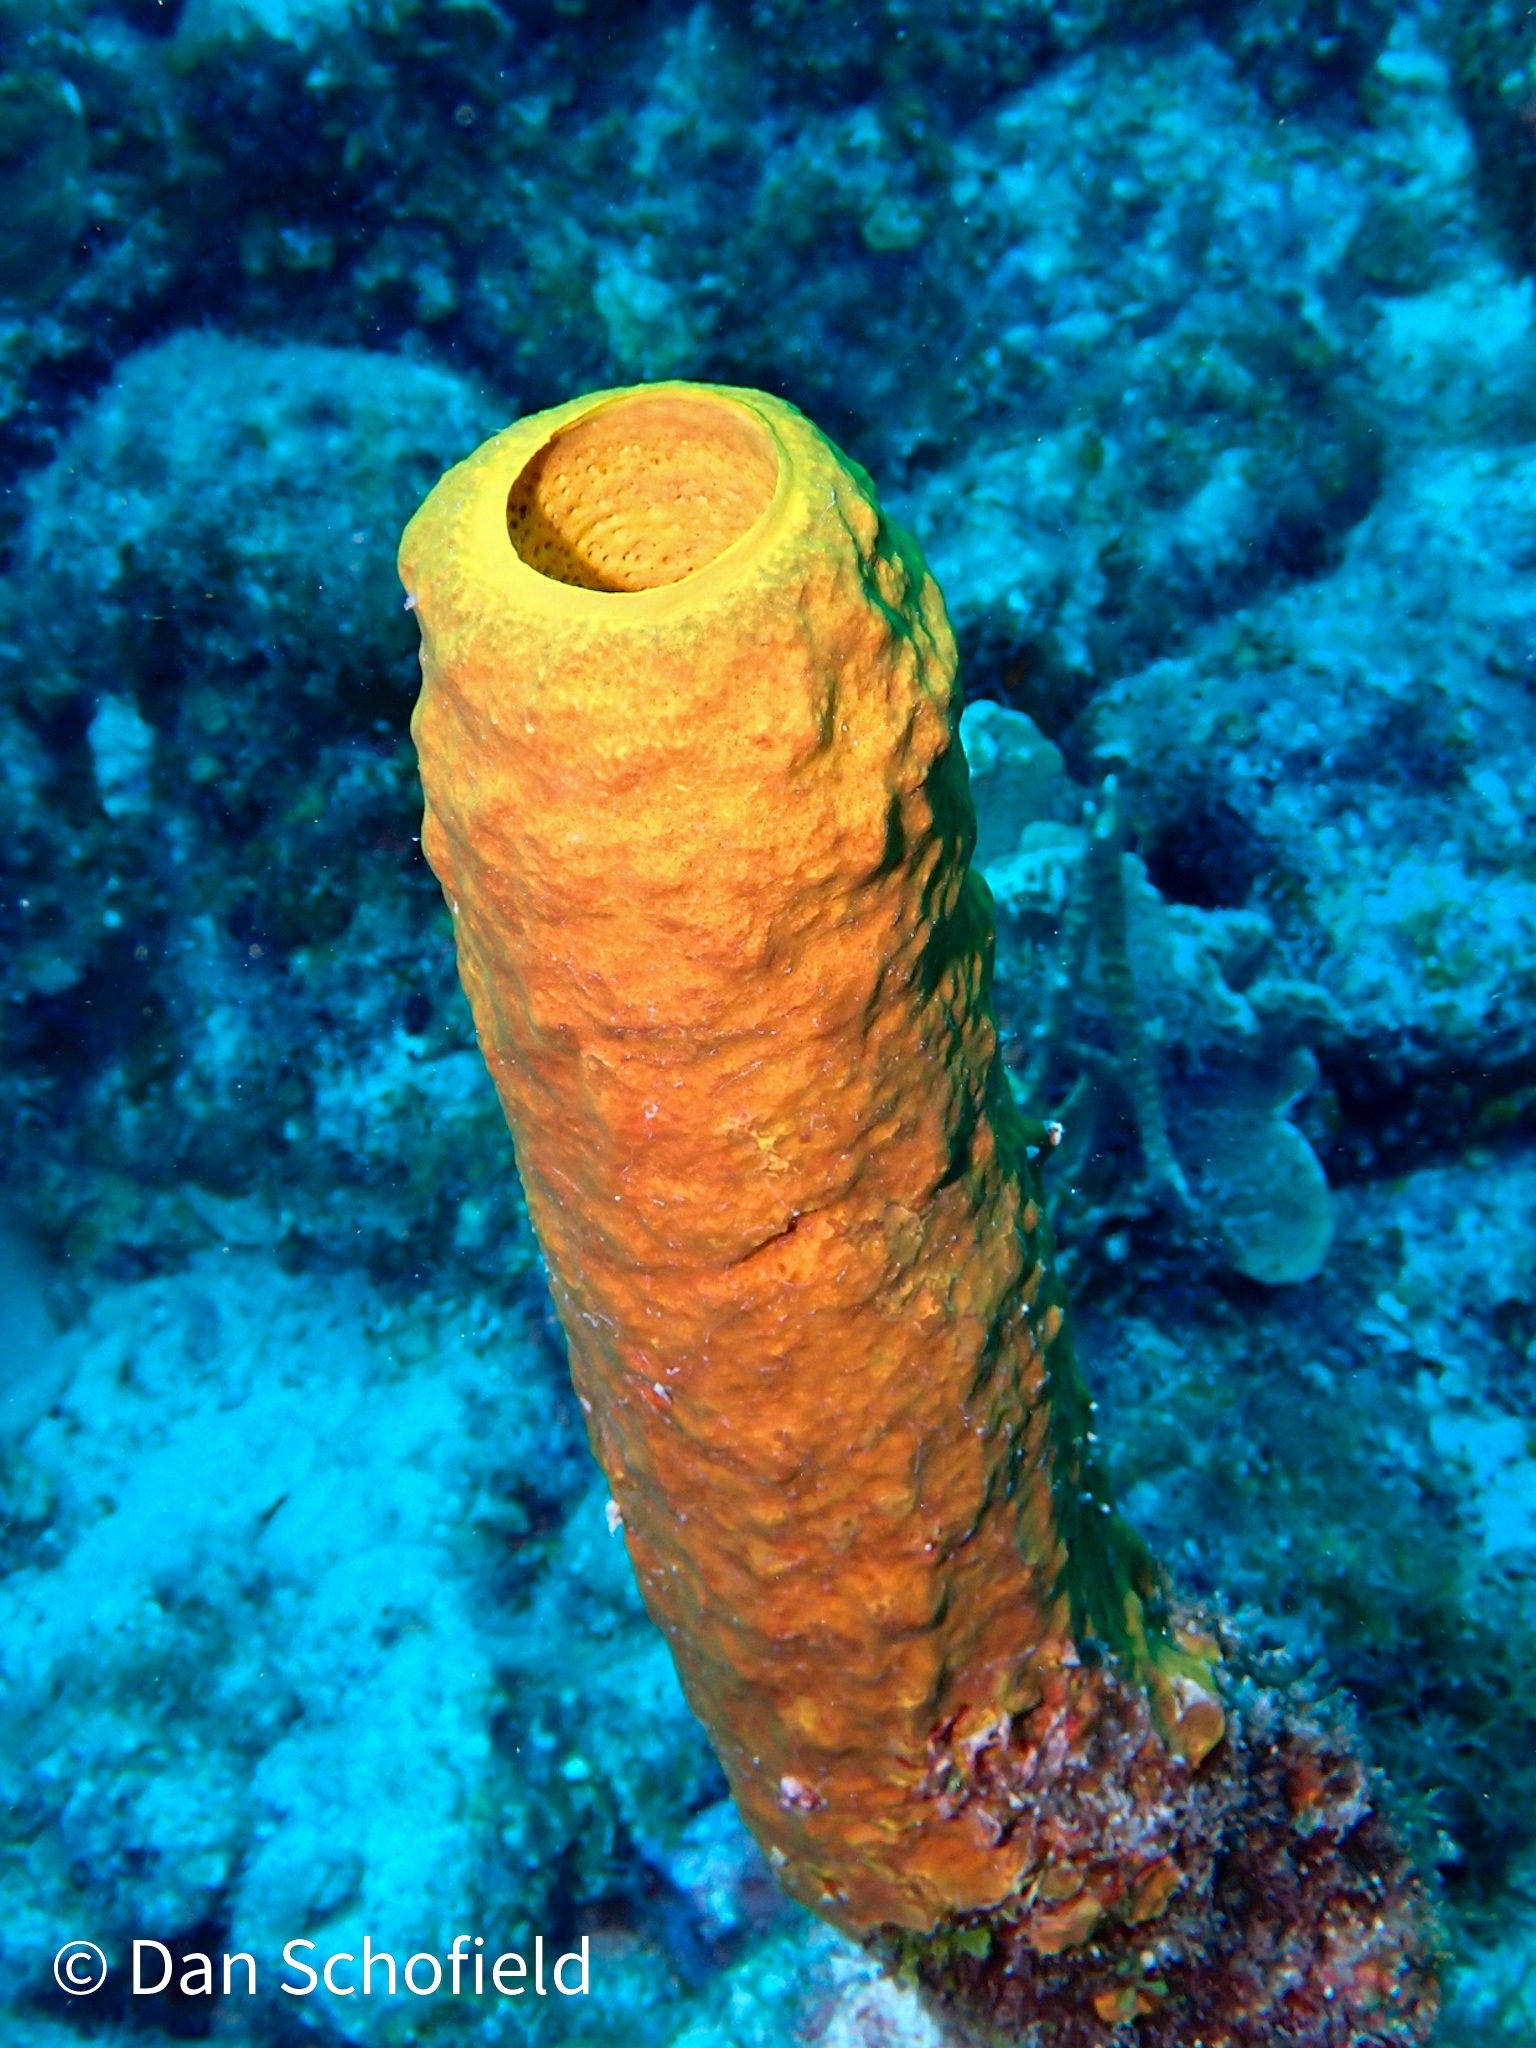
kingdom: Animalia
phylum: Porifera
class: Demospongiae
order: Verongiida
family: Aplysinidae
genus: Aplysina
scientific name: Aplysina fistularis
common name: Candle sponge
